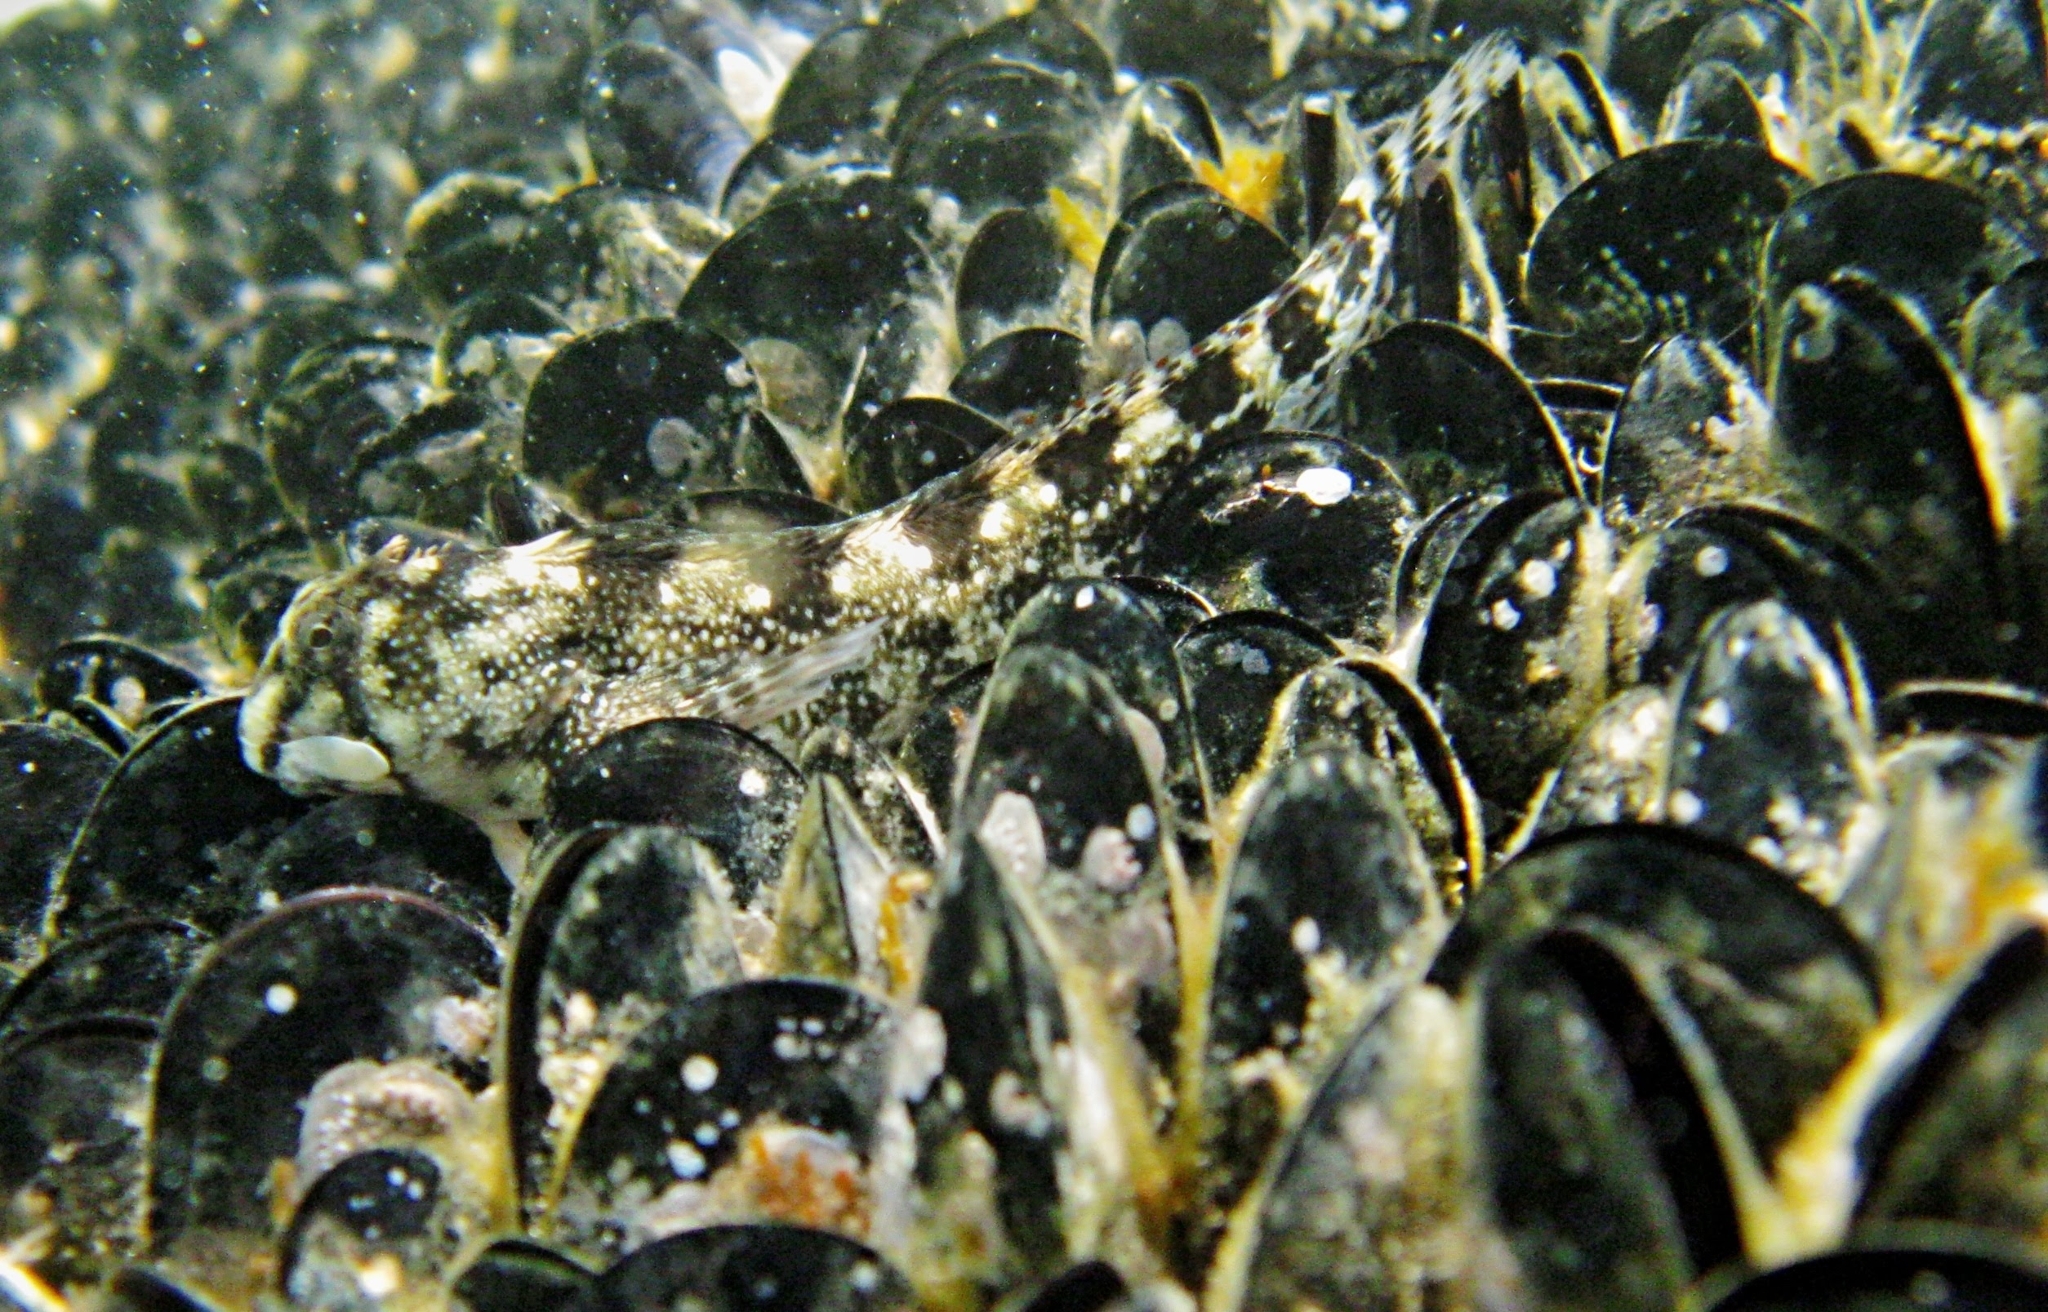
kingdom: Animalia
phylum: Chordata
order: Perciformes
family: Blenniidae
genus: Coryphoblennius
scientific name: Coryphoblennius galerita
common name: Montagu's blenny
